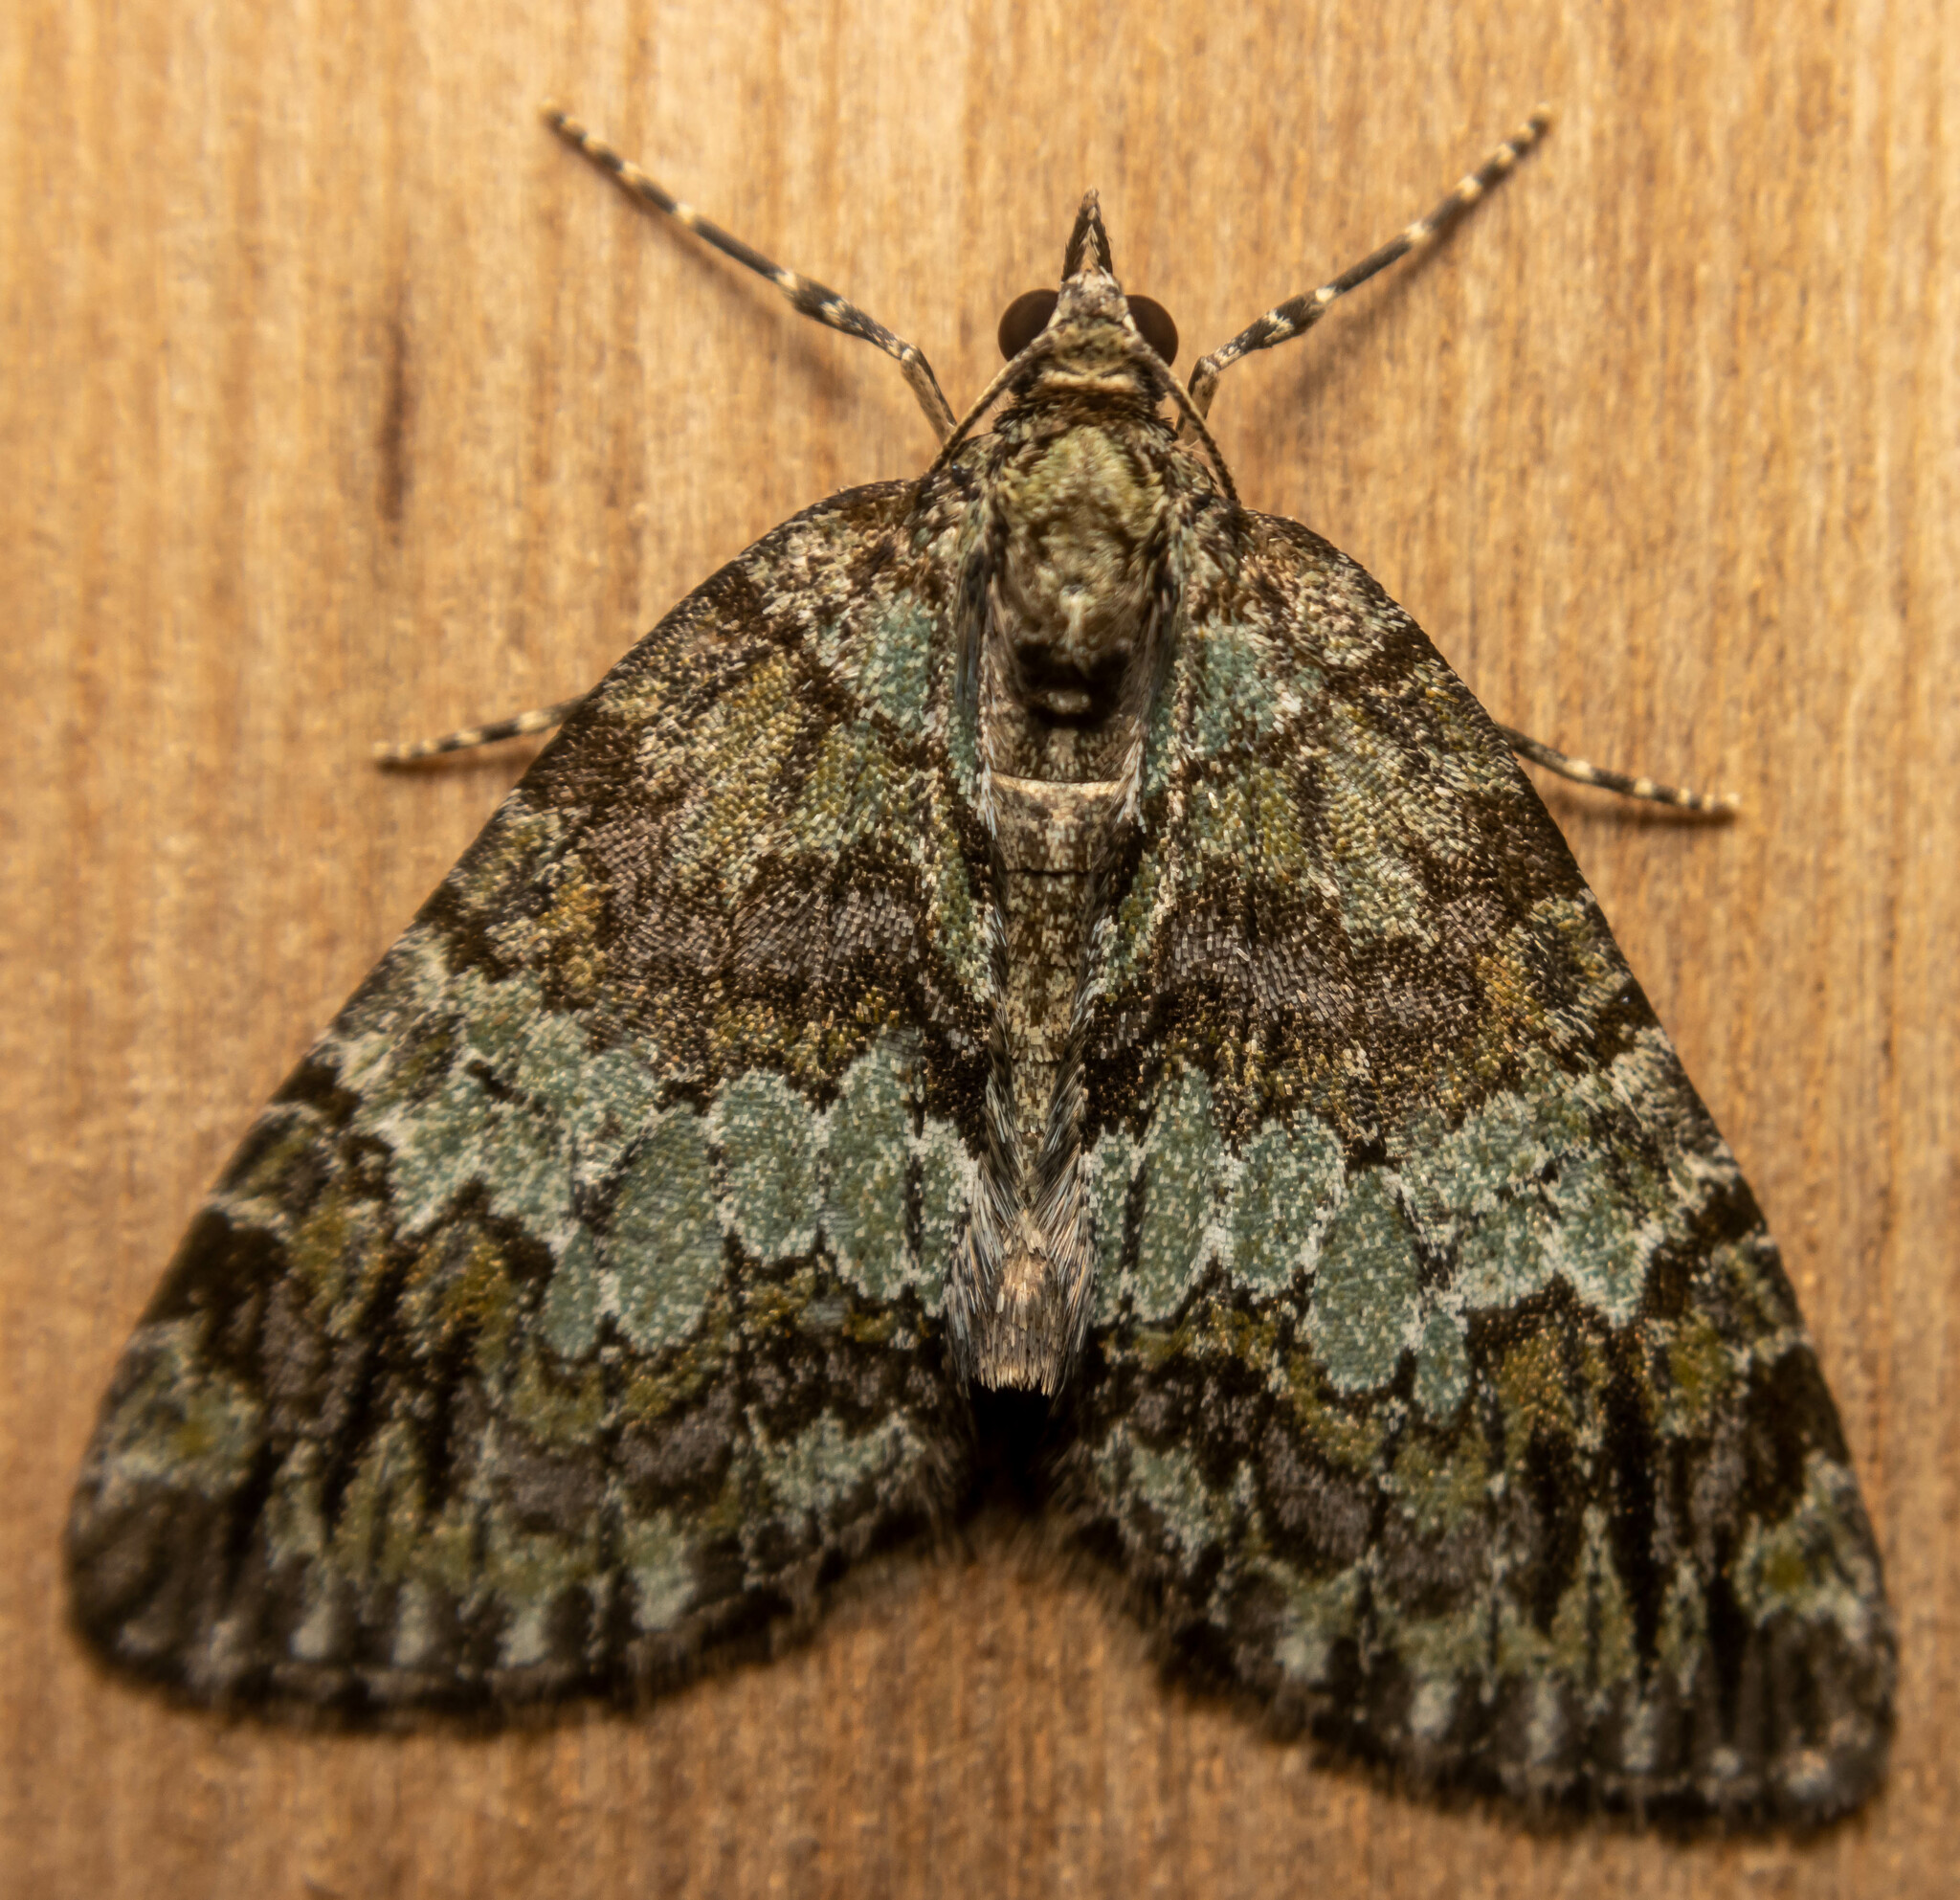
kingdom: Animalia
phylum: Arthropoda
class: Insecta
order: Lepidoptera
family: Geometridae
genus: Hydriomena
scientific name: Hydriomena impluviata
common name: May highflyer
